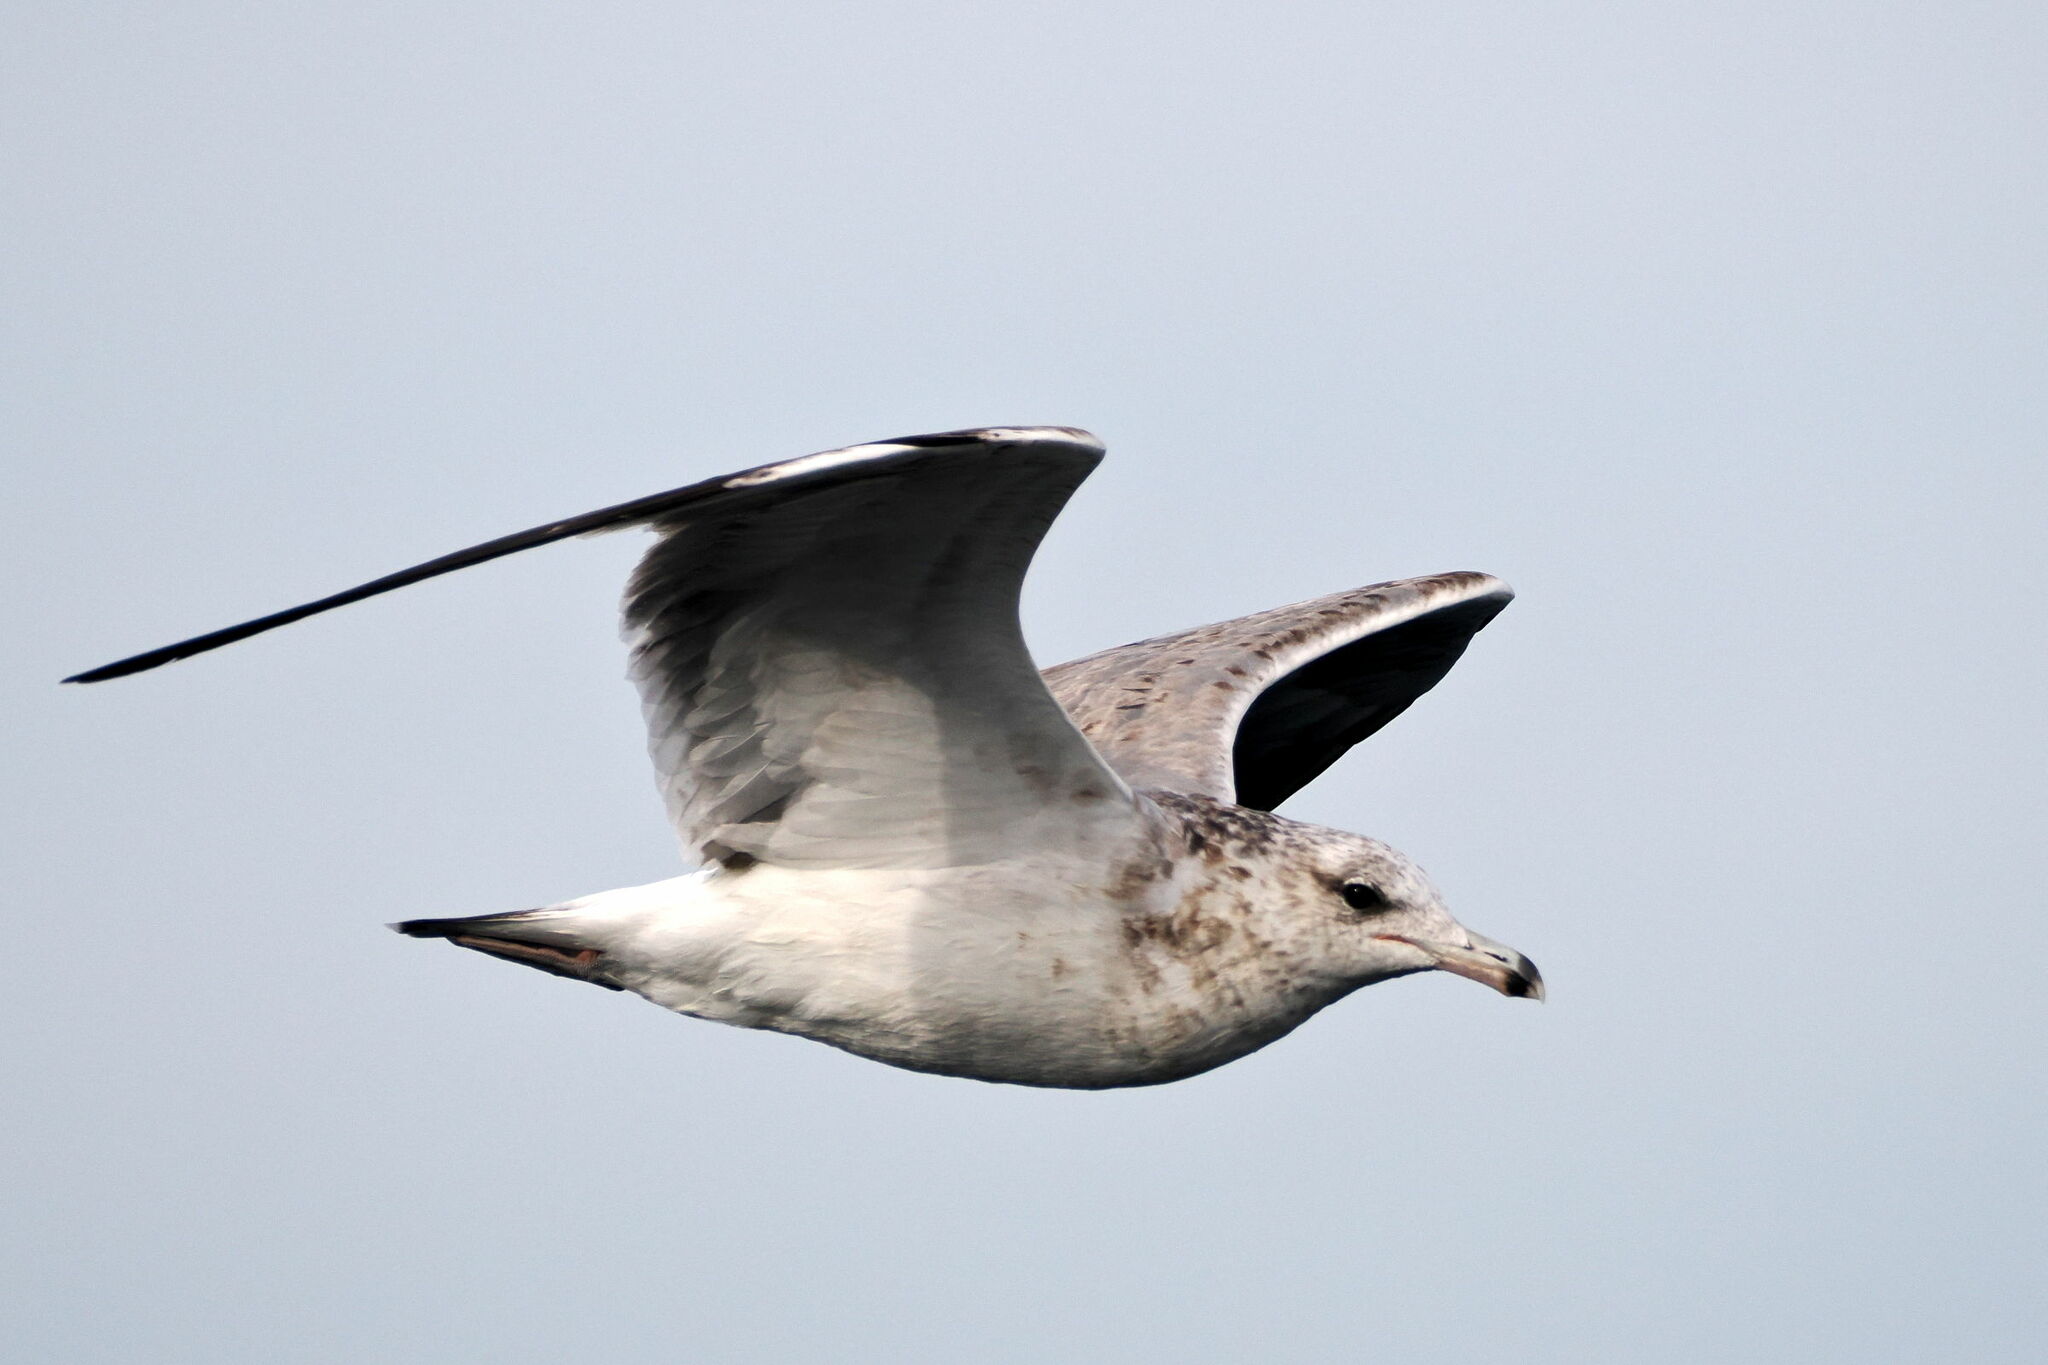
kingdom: Animalia
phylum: Chordata
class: Aves
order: Charadriiformes
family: Laridae
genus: Larus
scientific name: Larus californicus
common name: California gull
